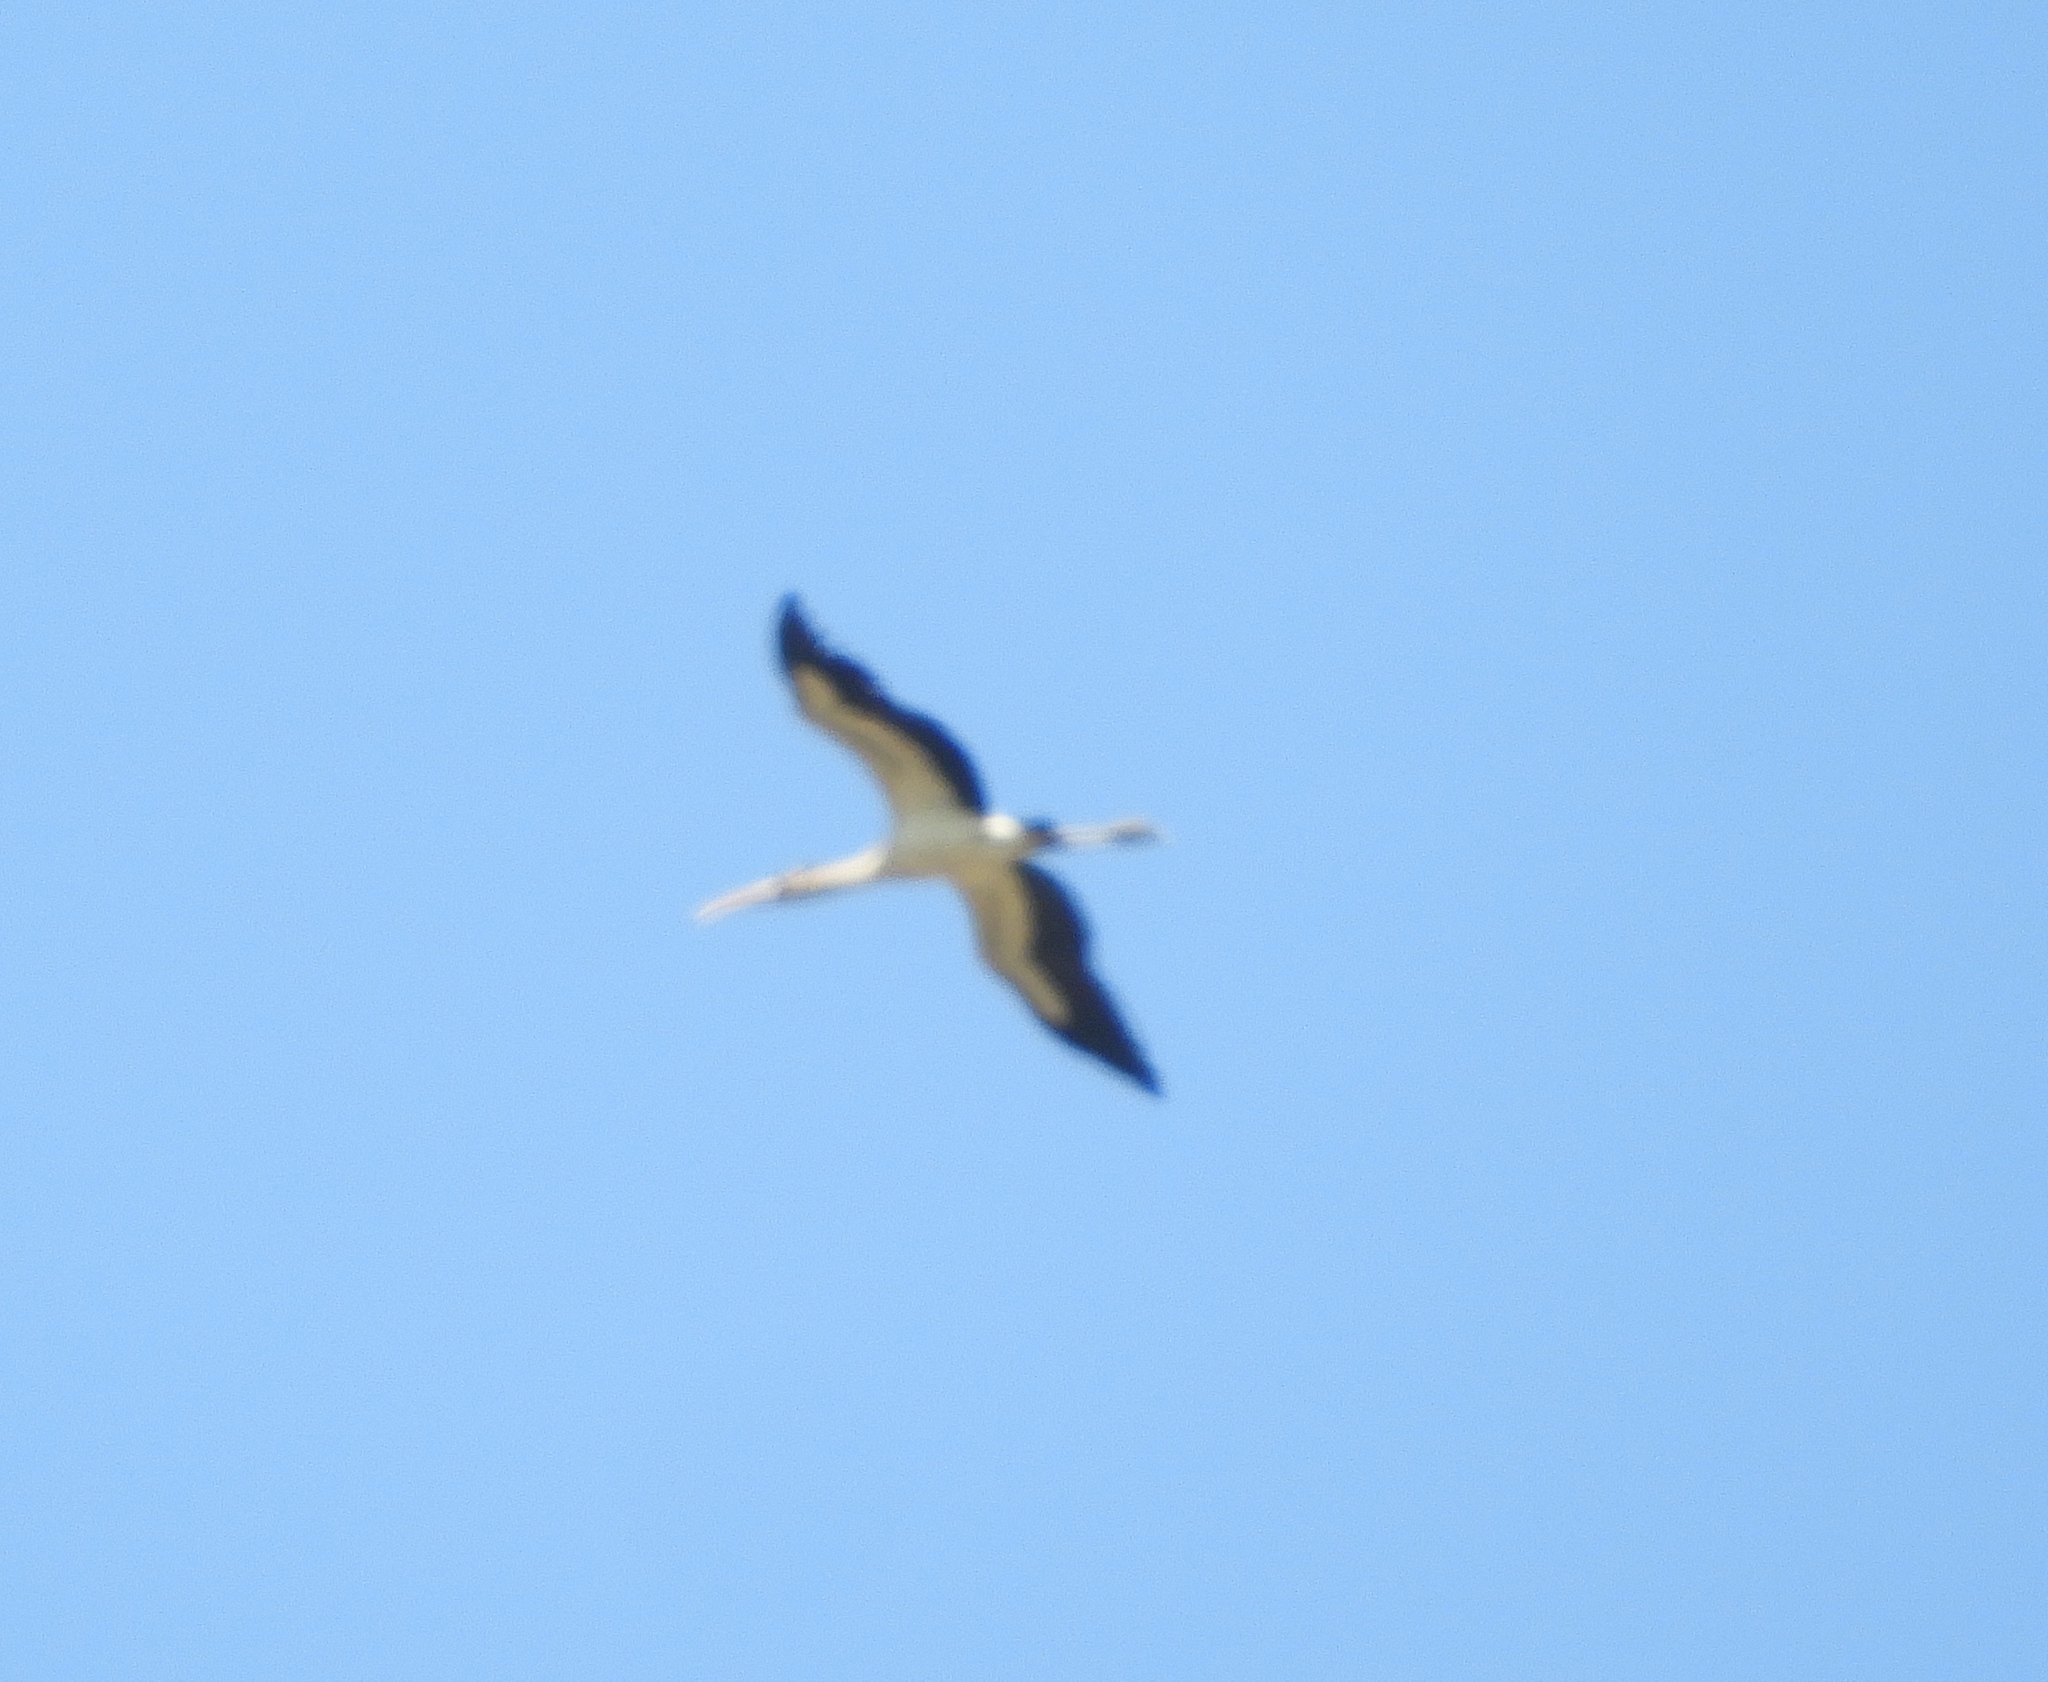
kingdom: Animalia
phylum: Chordata
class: Aves
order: Ciconiiformes
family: Ciconiidae
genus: Mycteria
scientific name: Mycteria americana
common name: Wood stork
